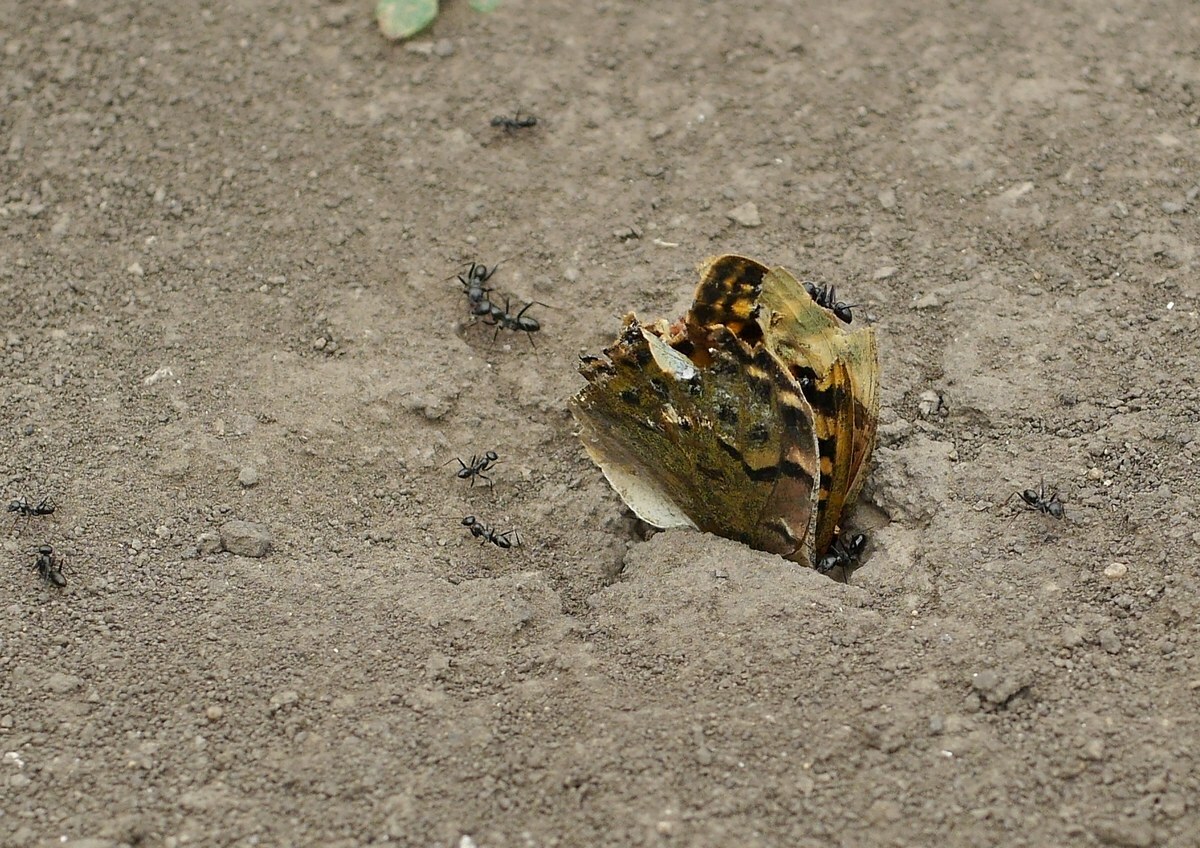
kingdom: Animalia
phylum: Arthropoda
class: Insecta
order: Lepidoptera
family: Nymphalidae
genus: Damora
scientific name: Damora pandora
